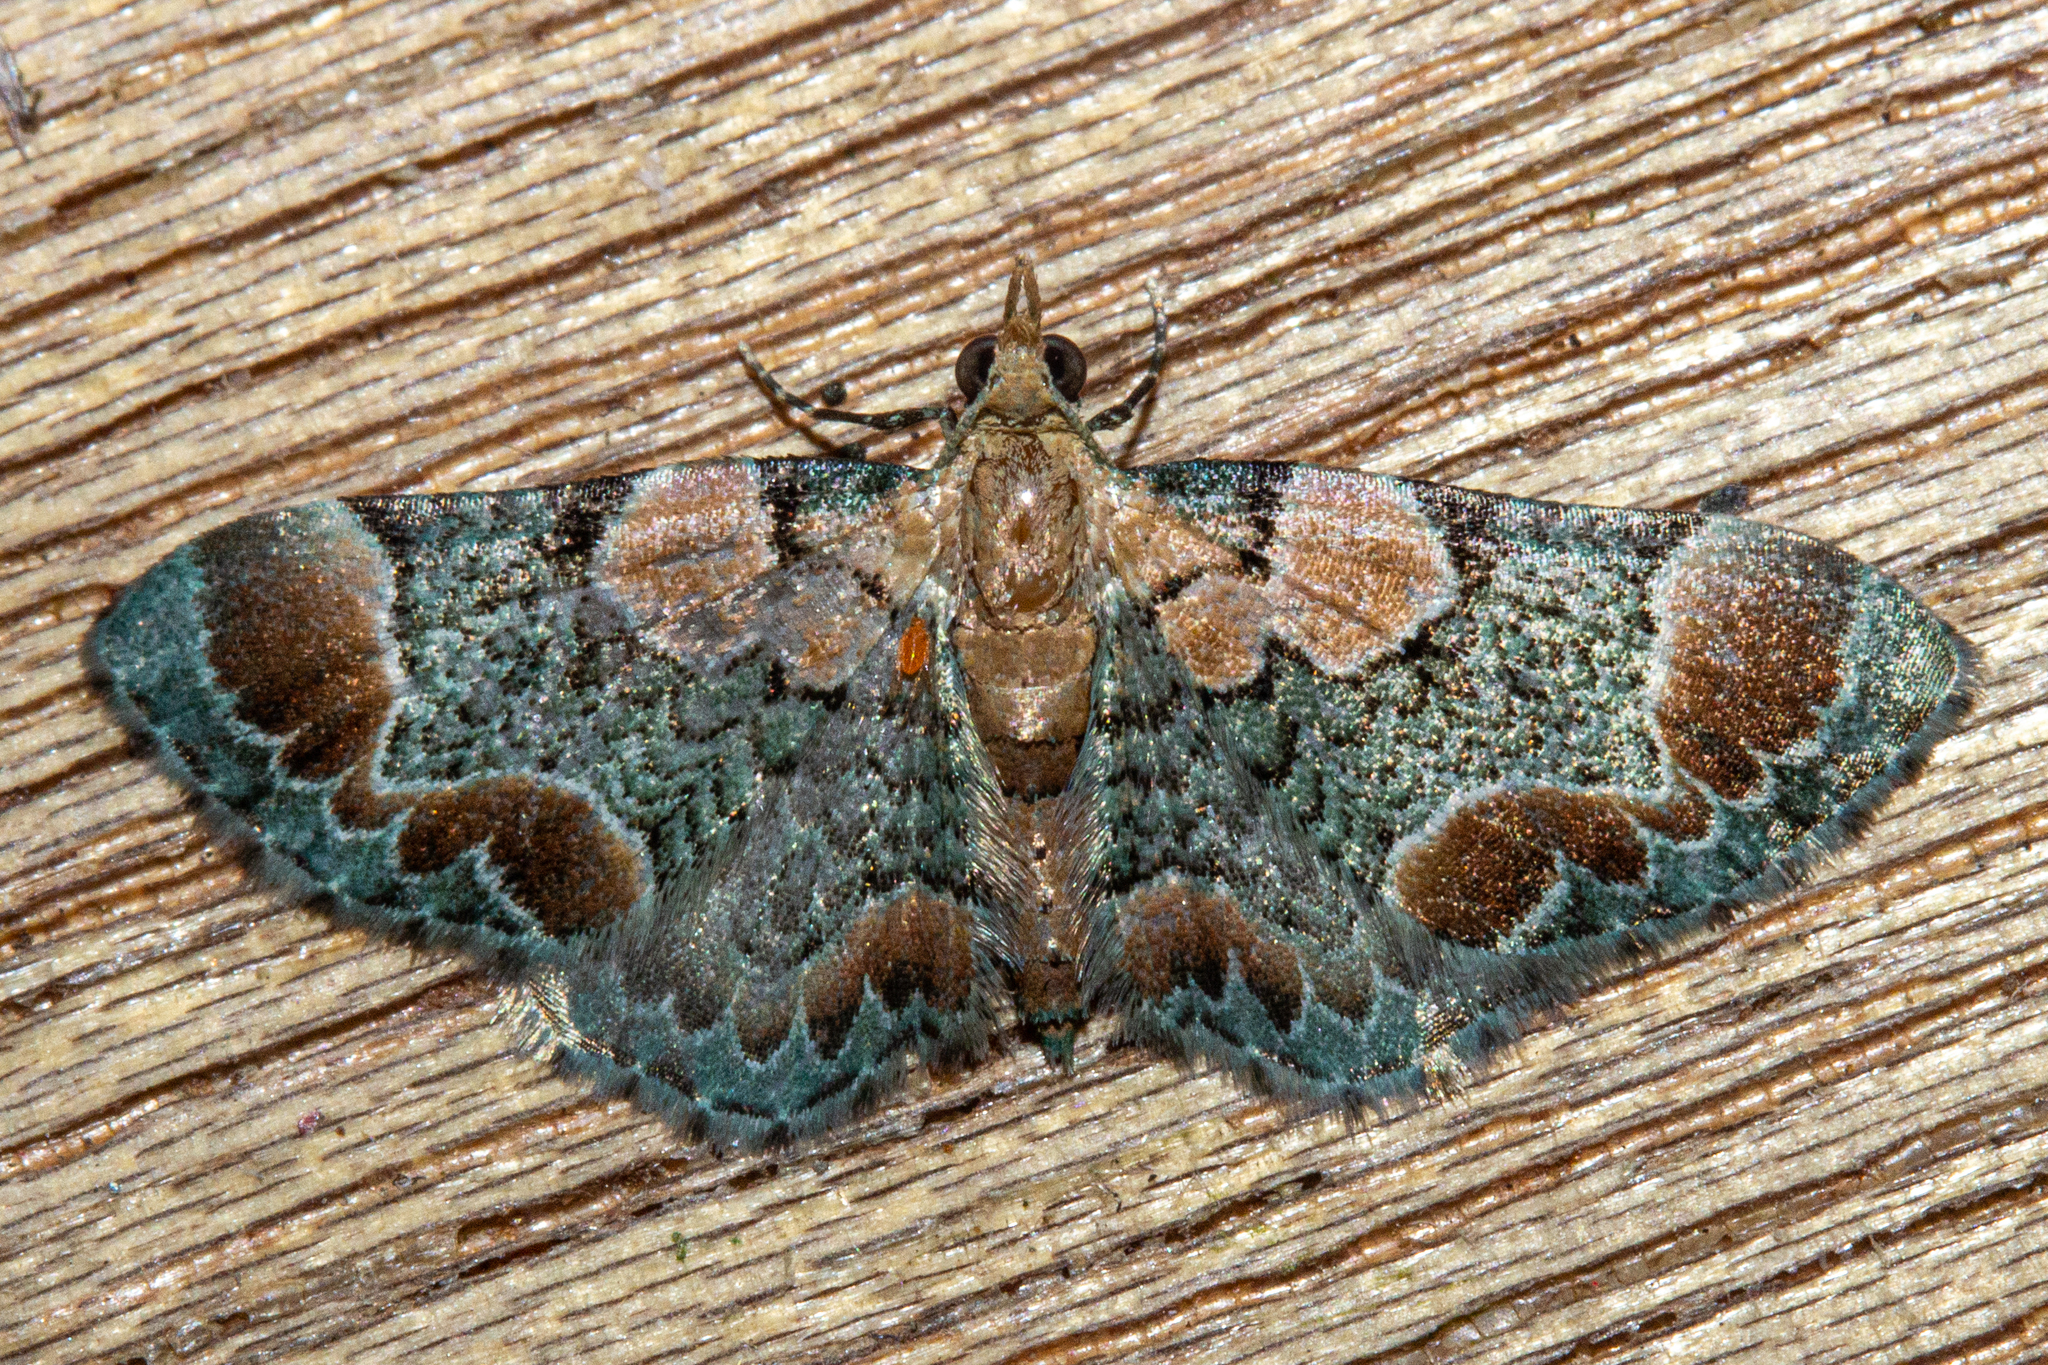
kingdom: Animalia
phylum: Arthropoda
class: Insecta
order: Lepidoptera
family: Geometridae
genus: Chloroclystis
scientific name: Chloroclystis
